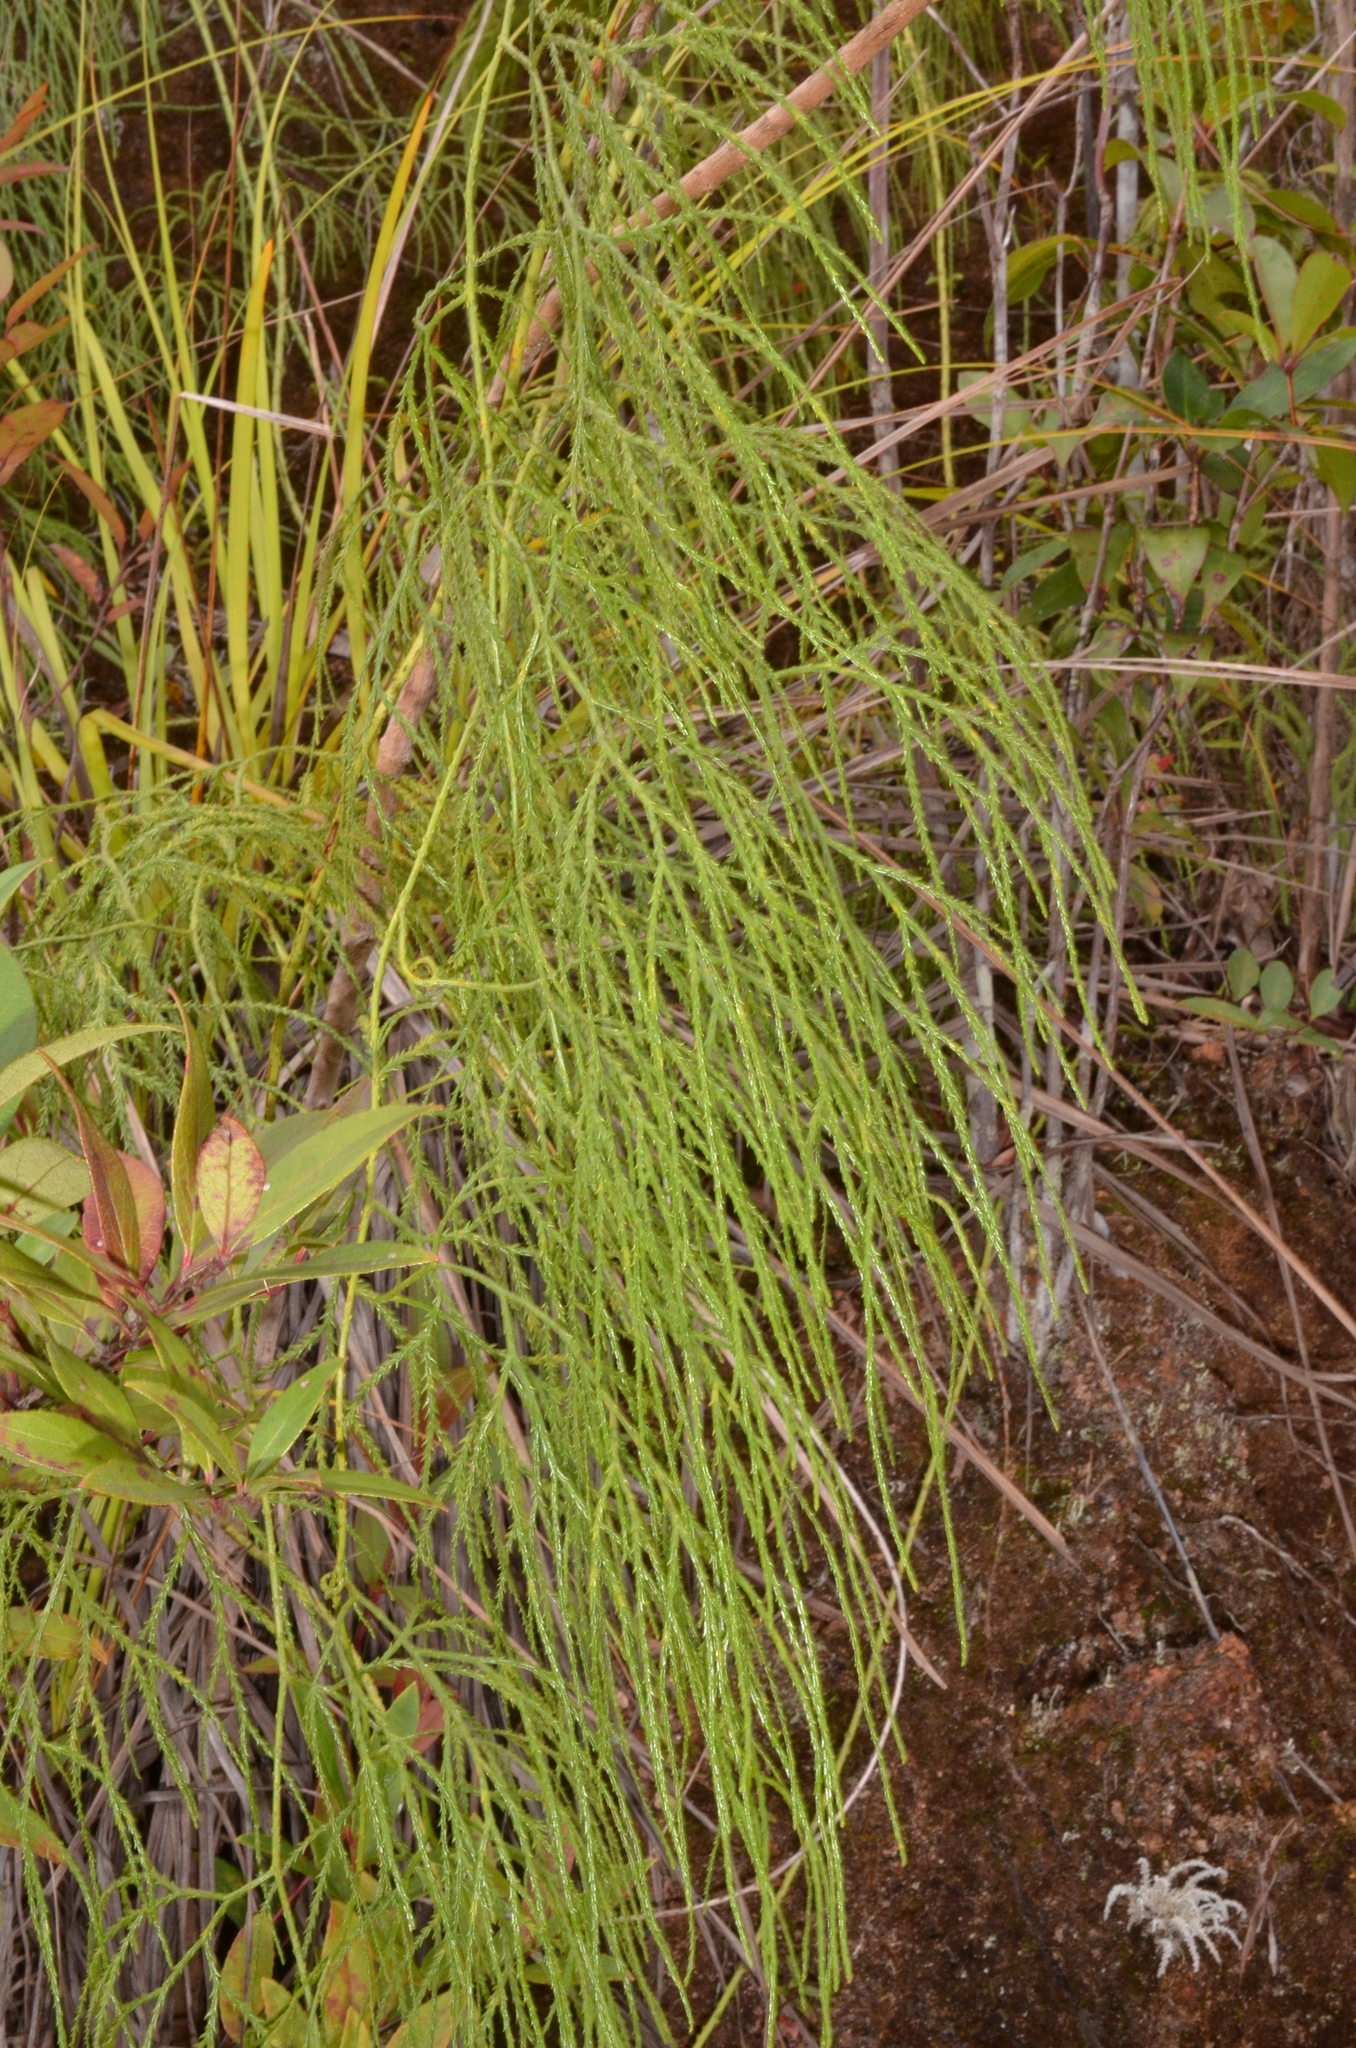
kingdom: Plantae
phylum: Tracheophyta
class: Lycopodiopsida
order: Lycopodiales
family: Lycopodiaceae
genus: Lycopodiastrum
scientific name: Lycopodiastrum casuarinoides
